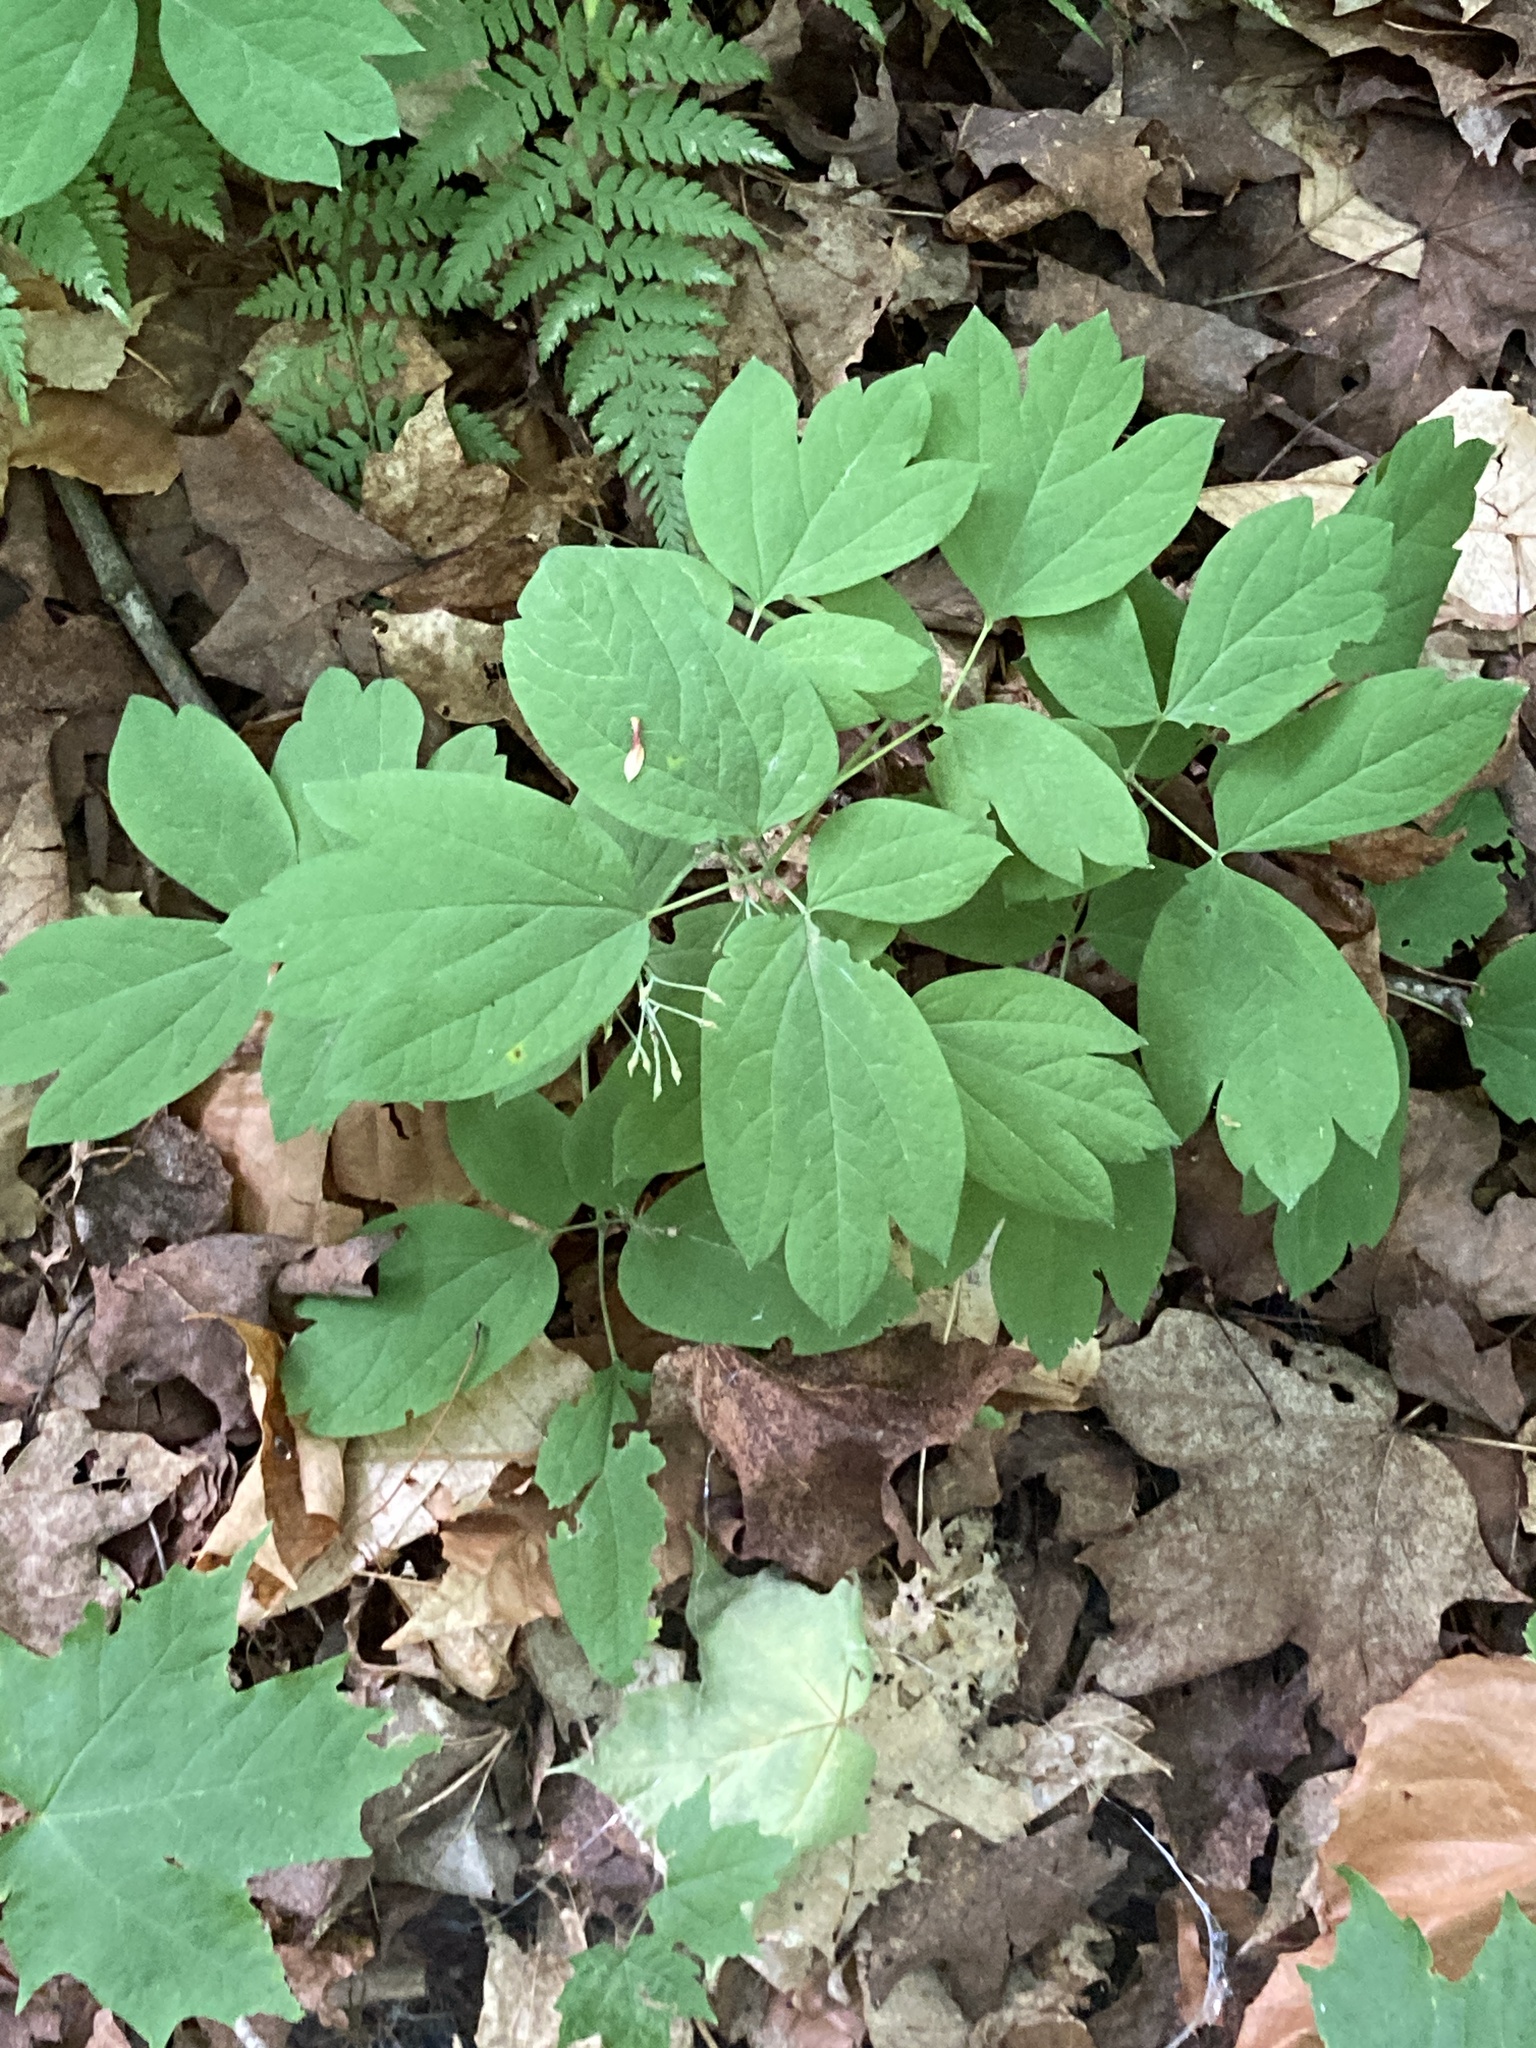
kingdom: Plantae
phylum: Tracheophyta
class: Magnoliopsida
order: Ranunculales
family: Berberidaceae
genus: Caulophyllum
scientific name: Caulophyllum thalictroides
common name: Blue cohosh
